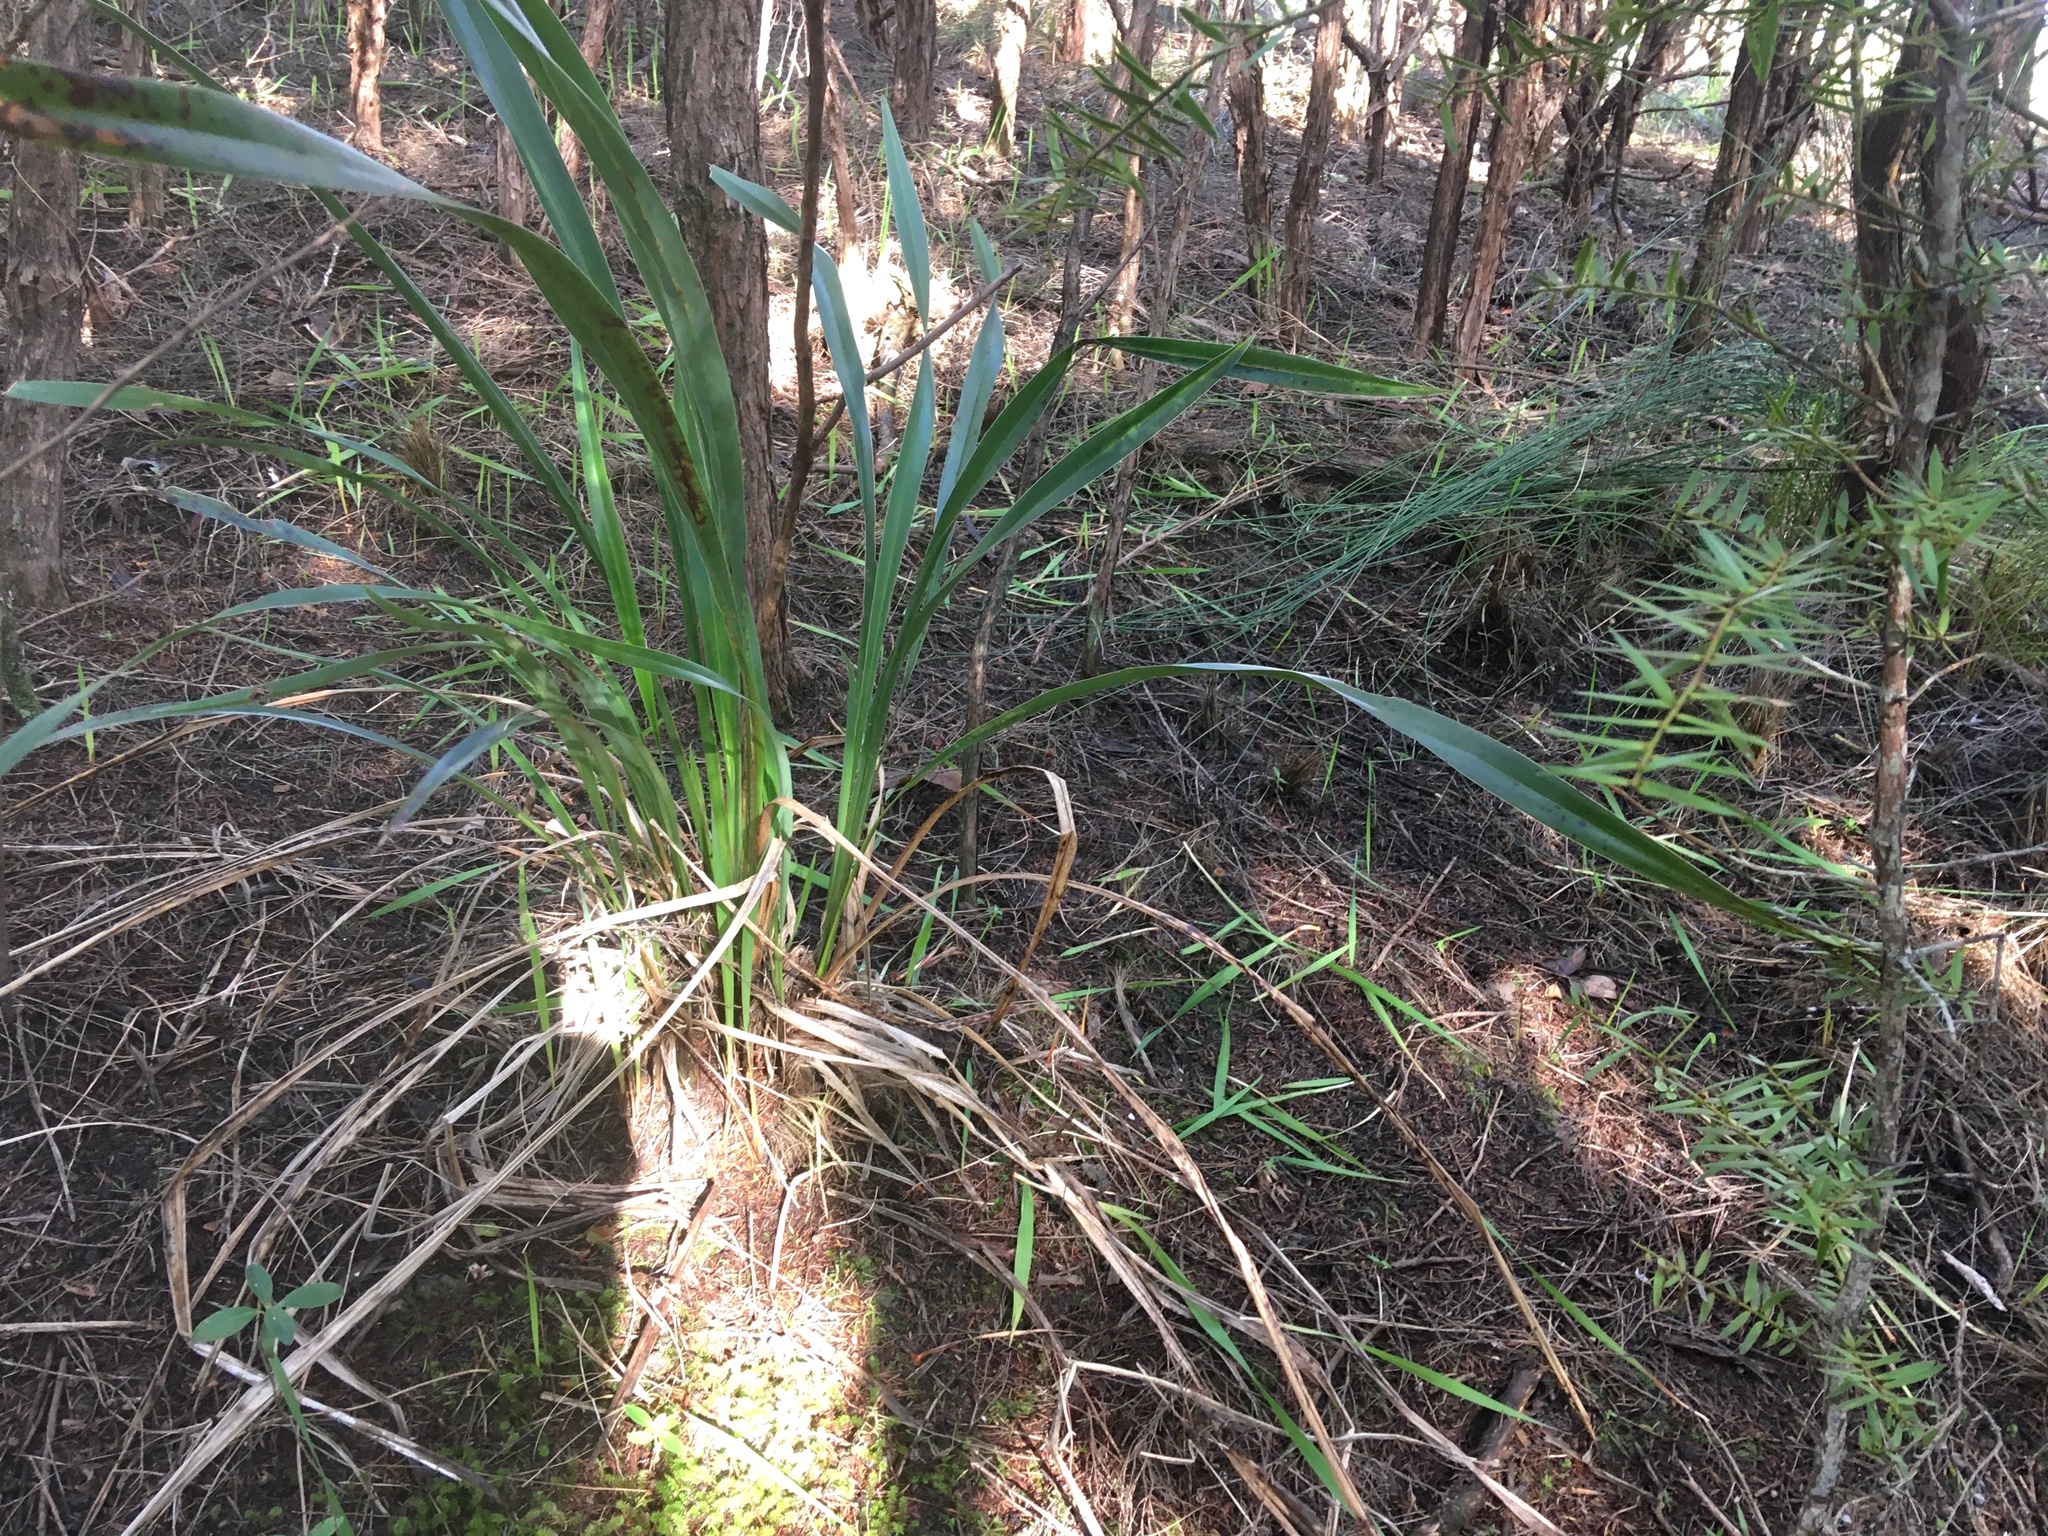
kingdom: Plantae
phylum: Tracheophyta
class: Liliopsida
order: Asparagales
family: Asphodelaceae
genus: Phormium
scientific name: Phormium tenax
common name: New zealand flax
